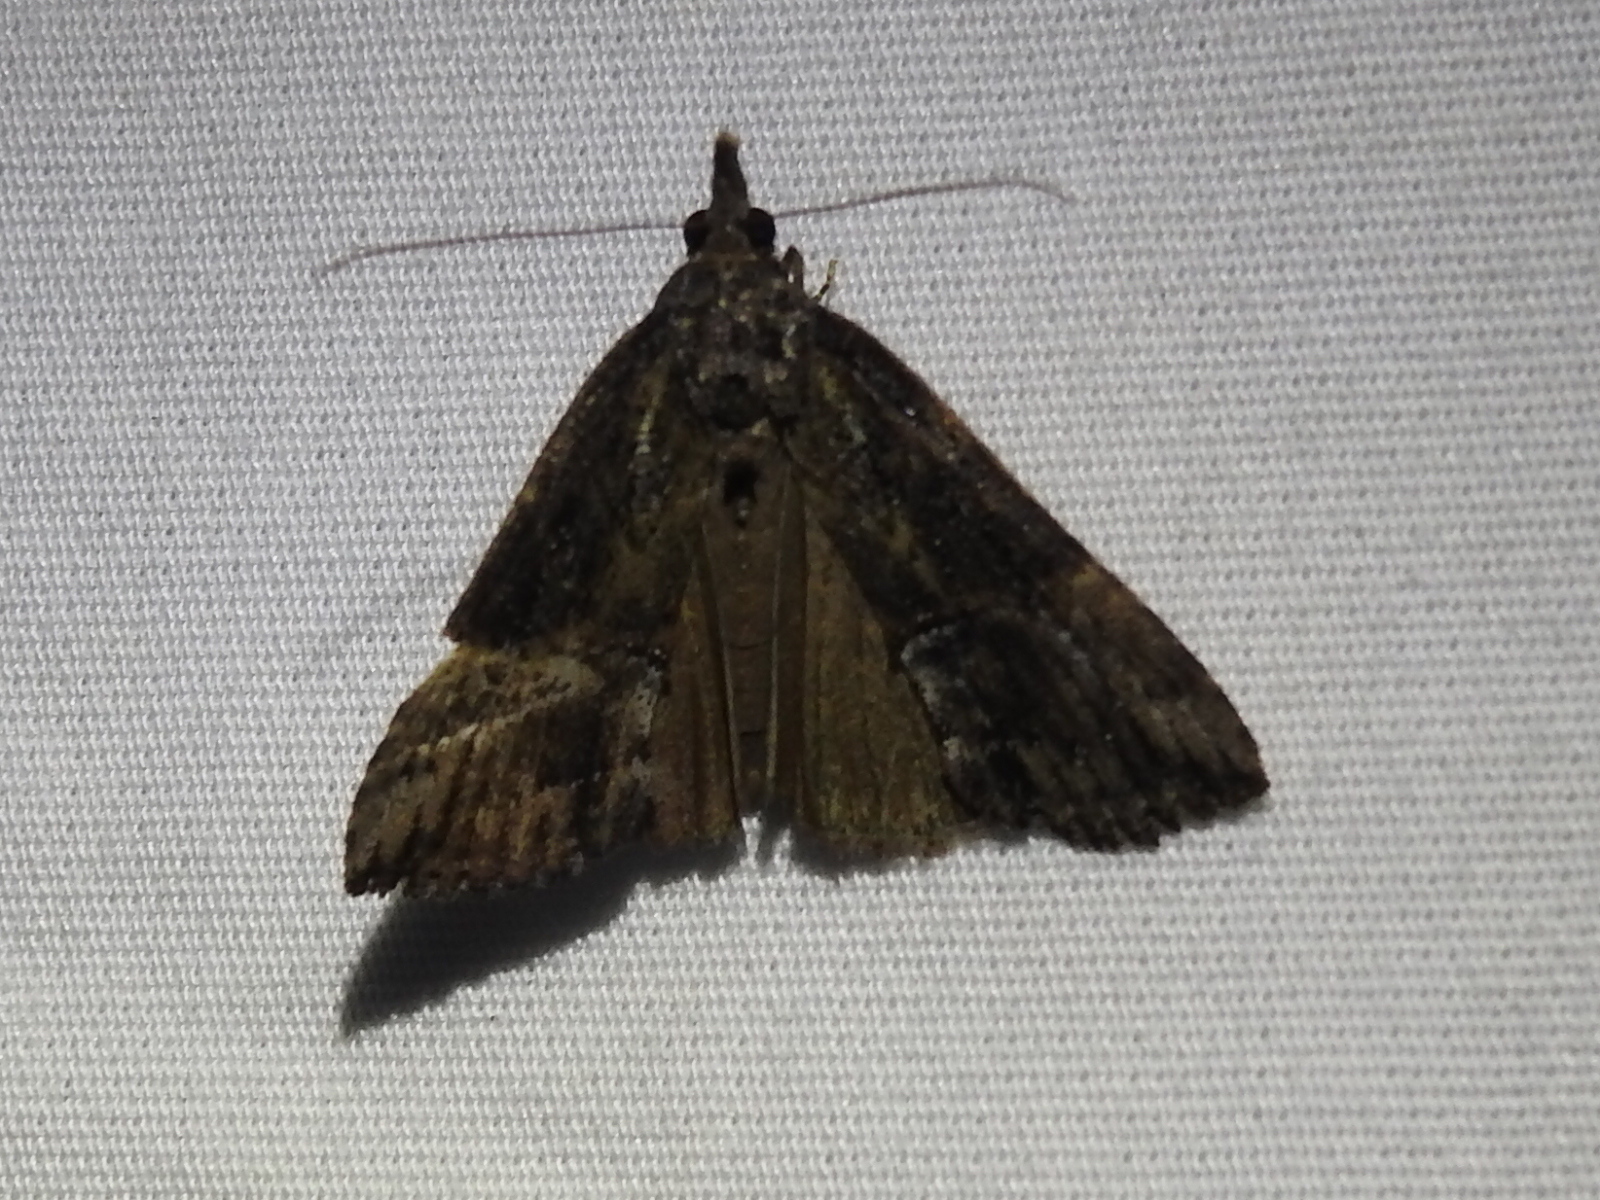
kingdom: Animalia
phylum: Arthropoda
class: Insecta
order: Lepidoptera
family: Erebidae
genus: Hypena
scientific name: Hypena scabra
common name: Green cloverworm
